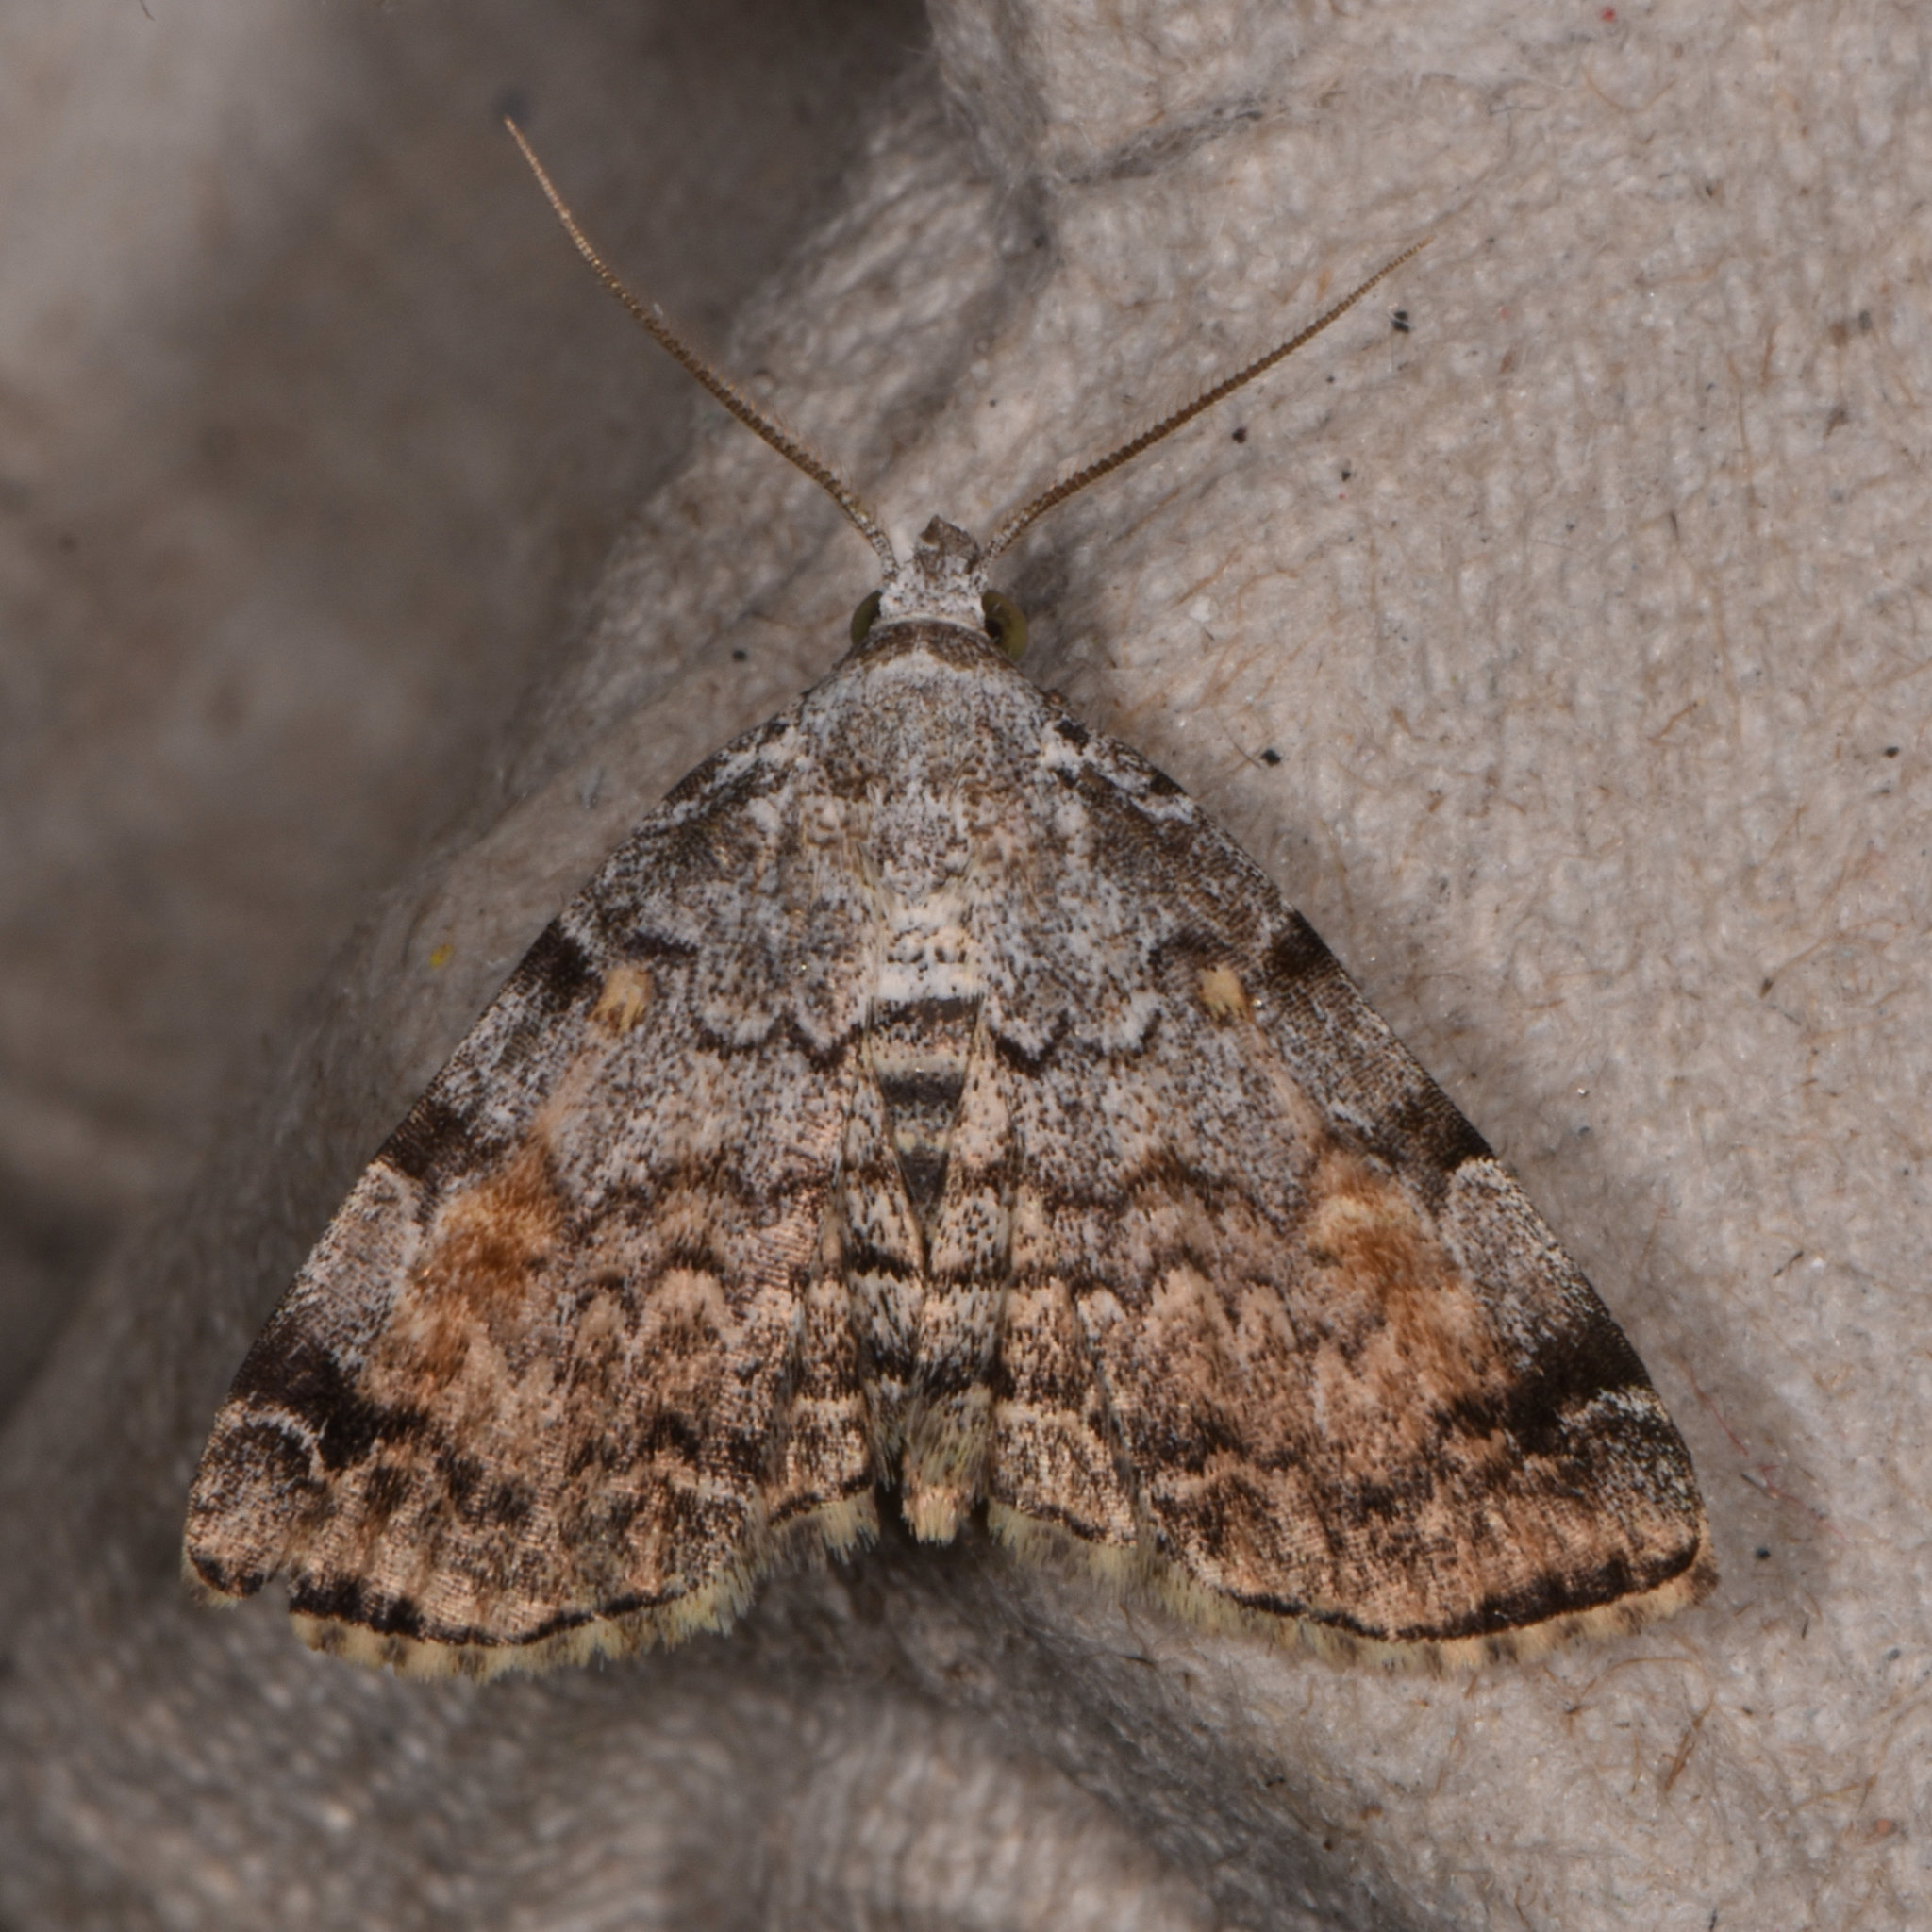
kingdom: Animalia
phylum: Arthropoda
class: Insecta
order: Lepidoptera
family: Erebidae
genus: Idia
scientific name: Idia americalis
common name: American idia moth
